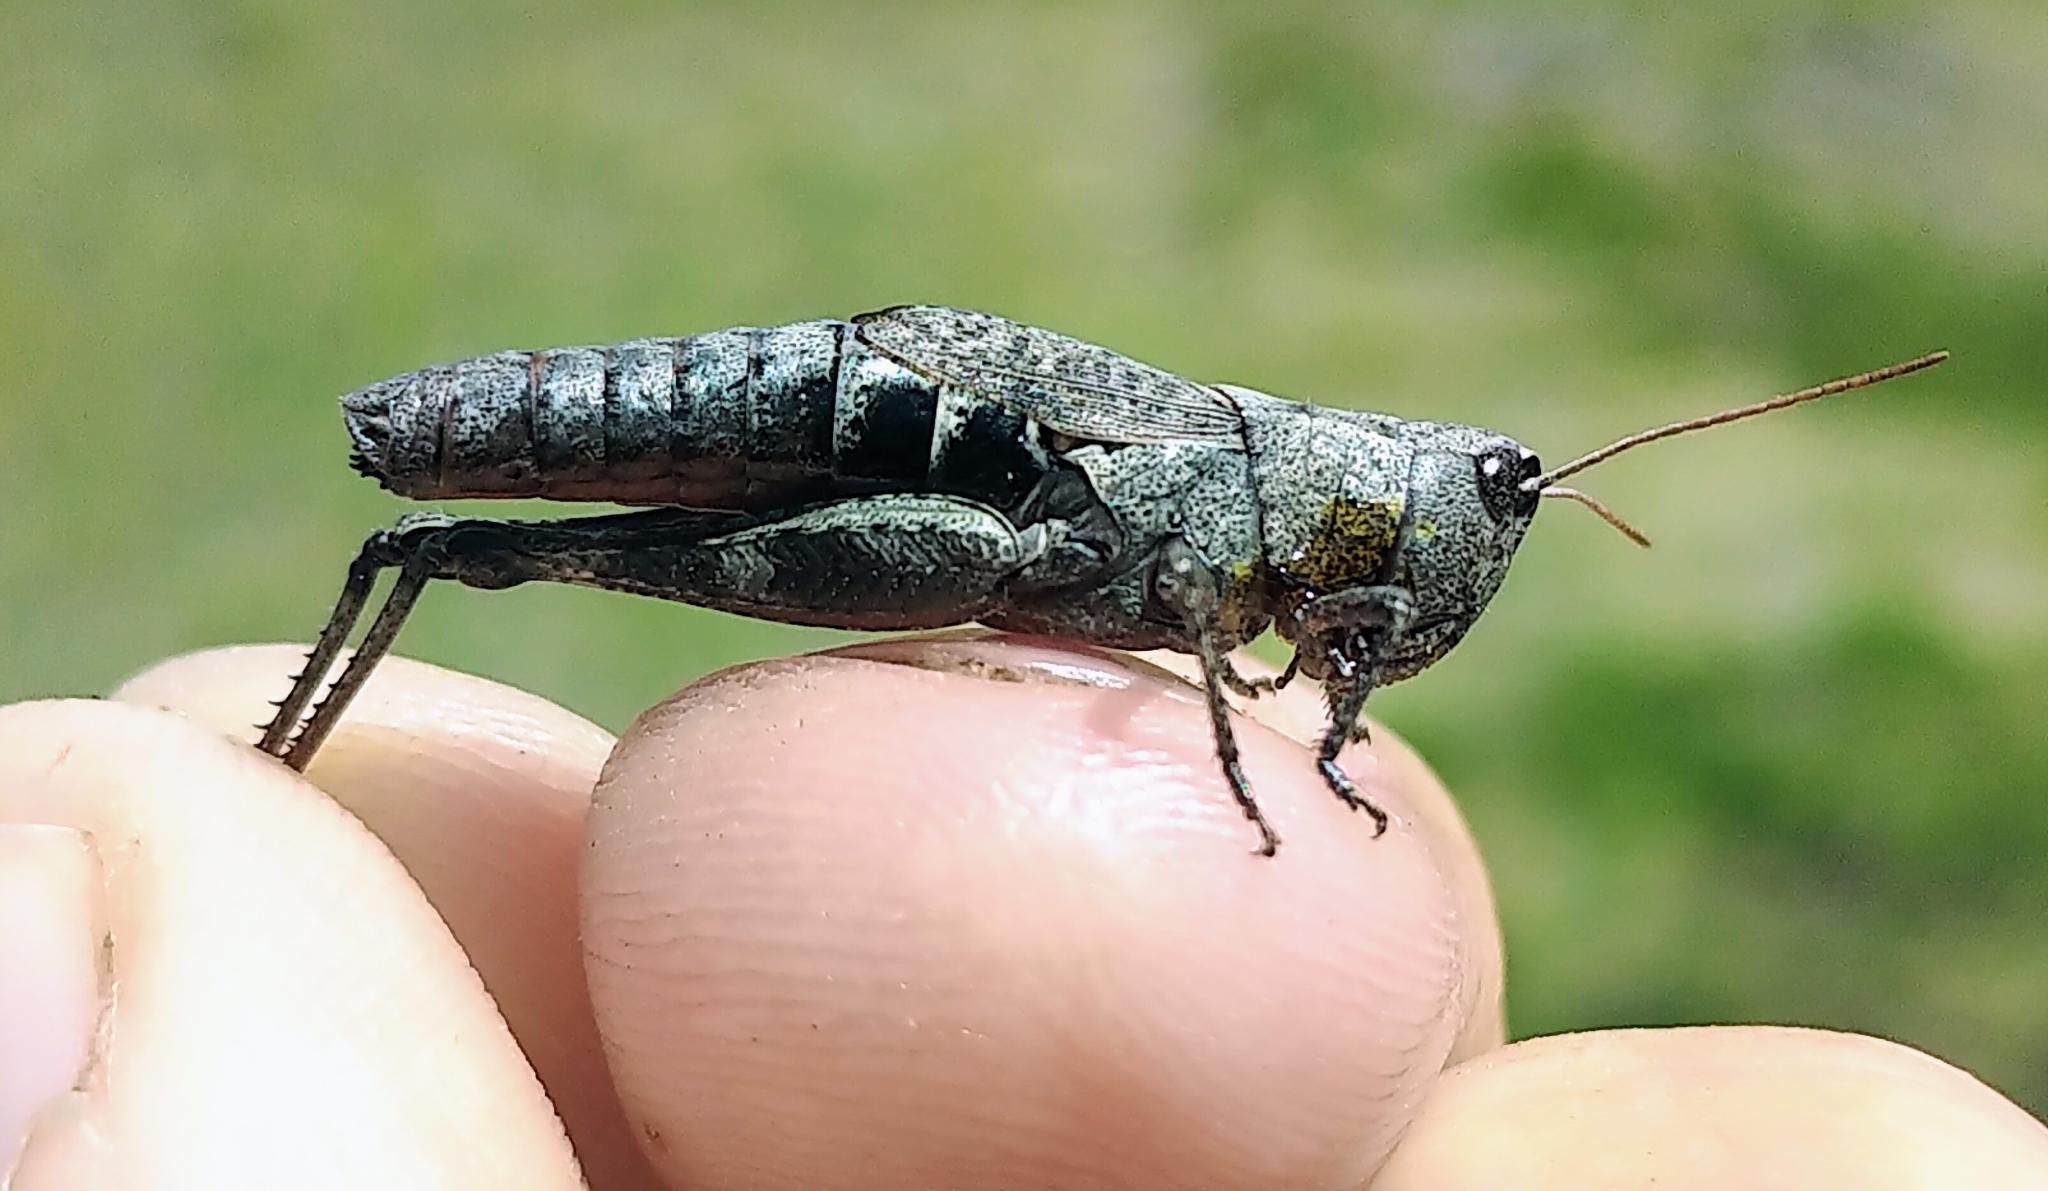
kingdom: Animalia
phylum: Arthropoda
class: Insecta
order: Orthoptera
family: Acrididae
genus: Chloealtis
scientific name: Chloealtis conspersa
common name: Sprinkled broad-winged grasshopper
